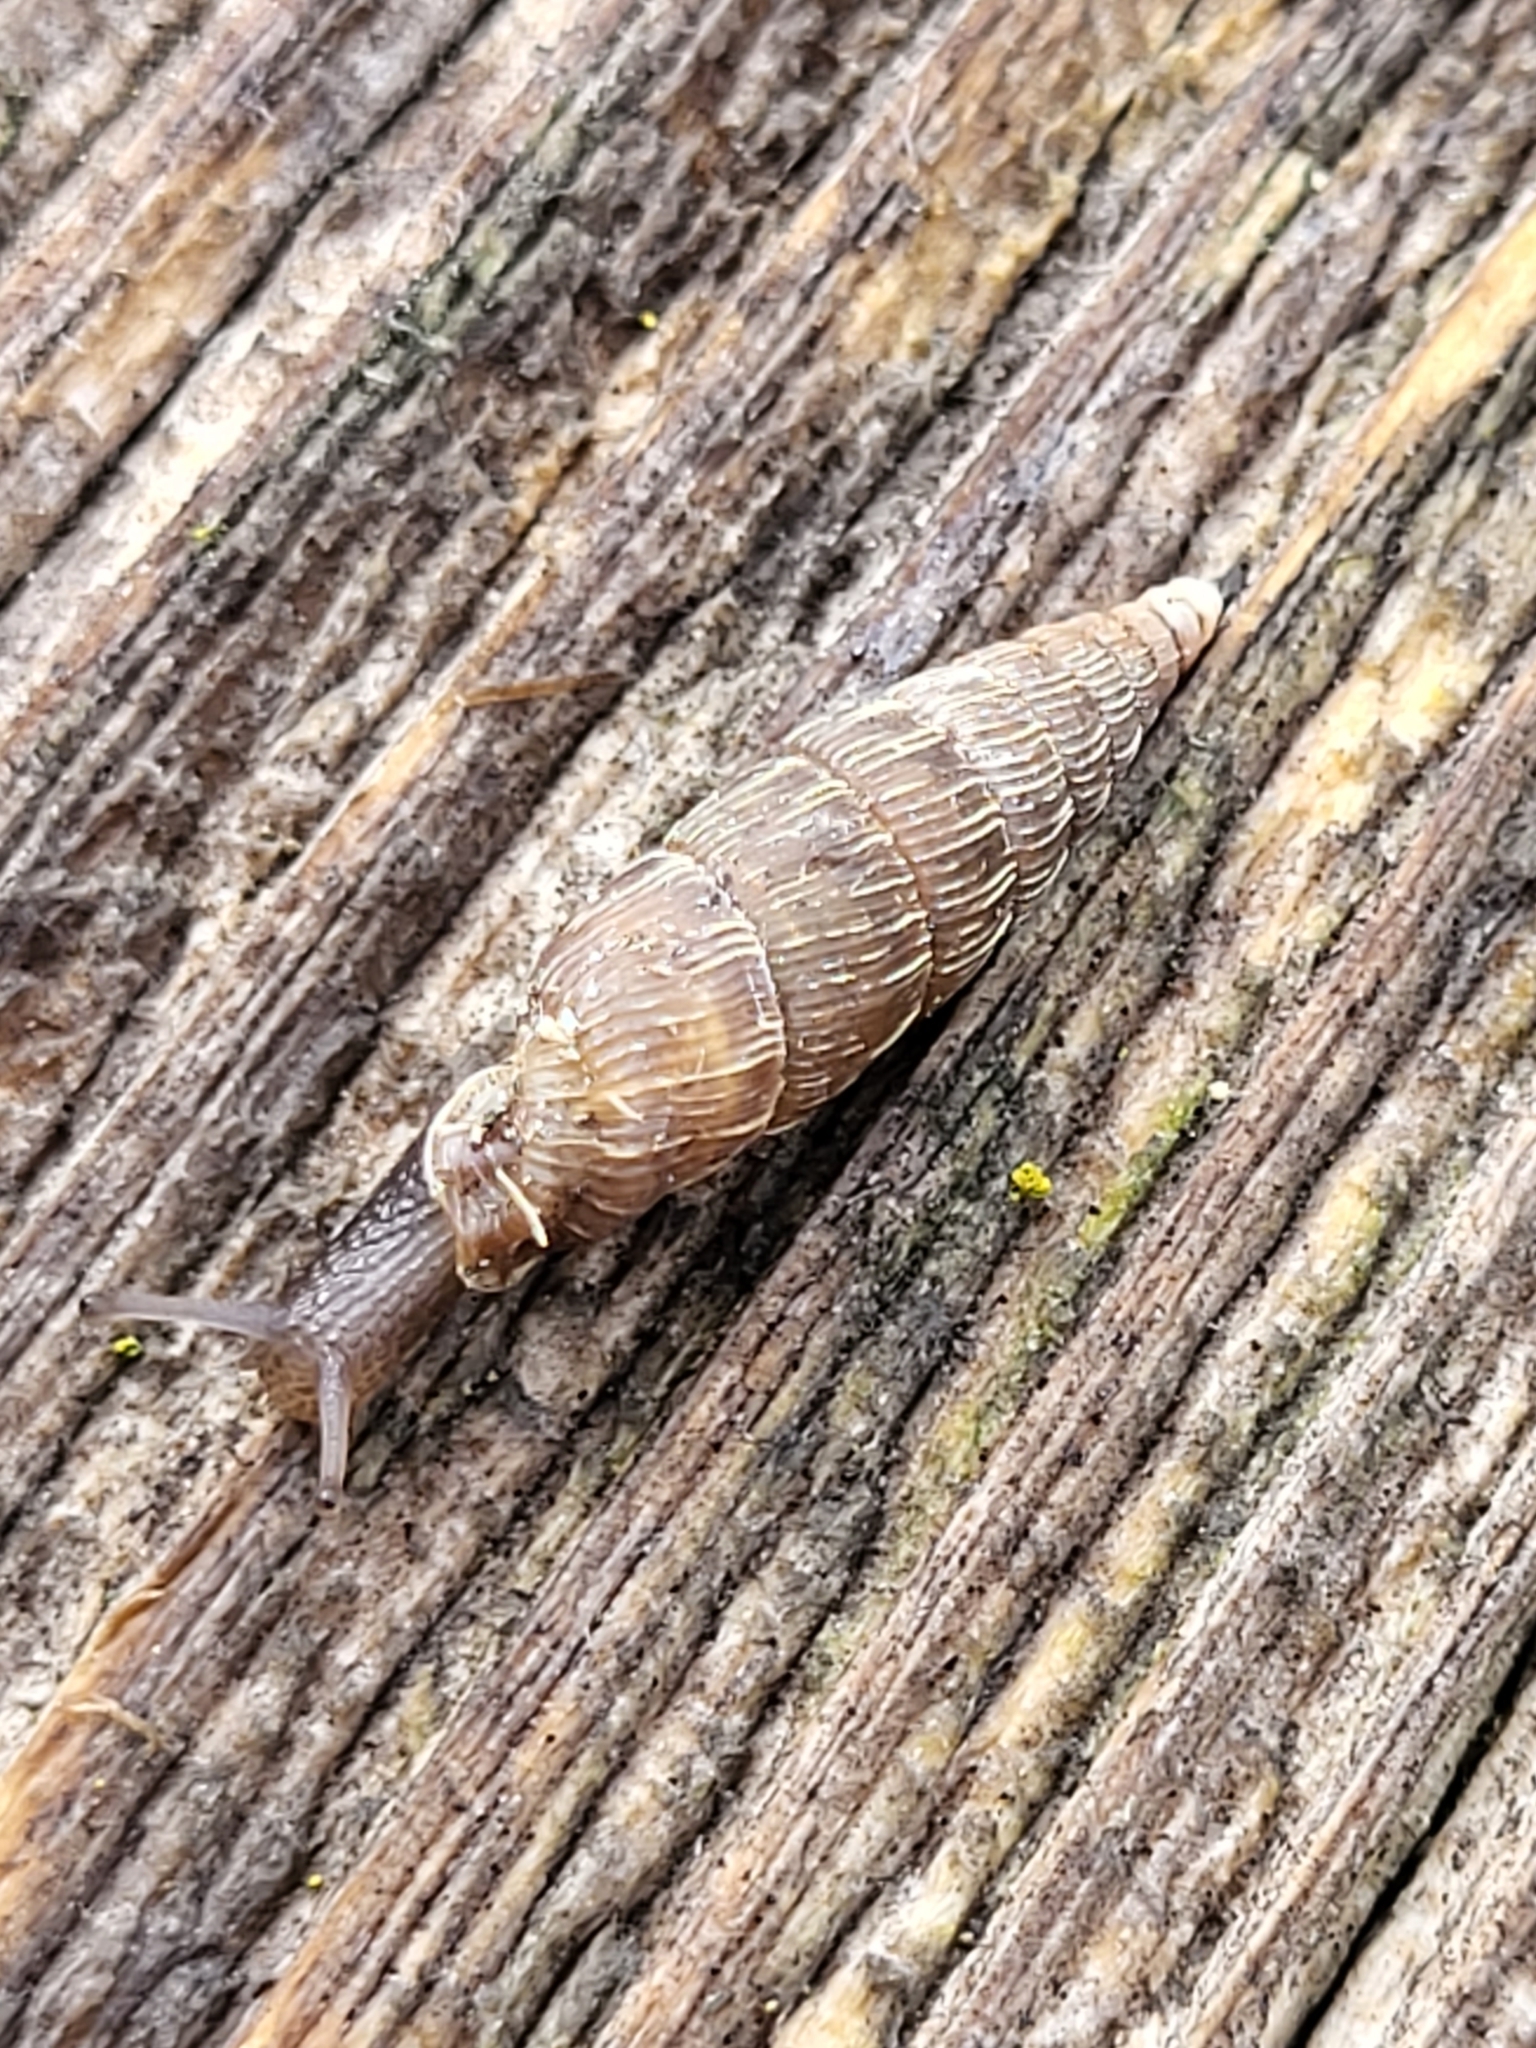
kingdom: Animalia
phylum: Mollusca
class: Gastropoda
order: Stylommatophora
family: Clausiliidae
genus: Elia
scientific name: Elia derasa
